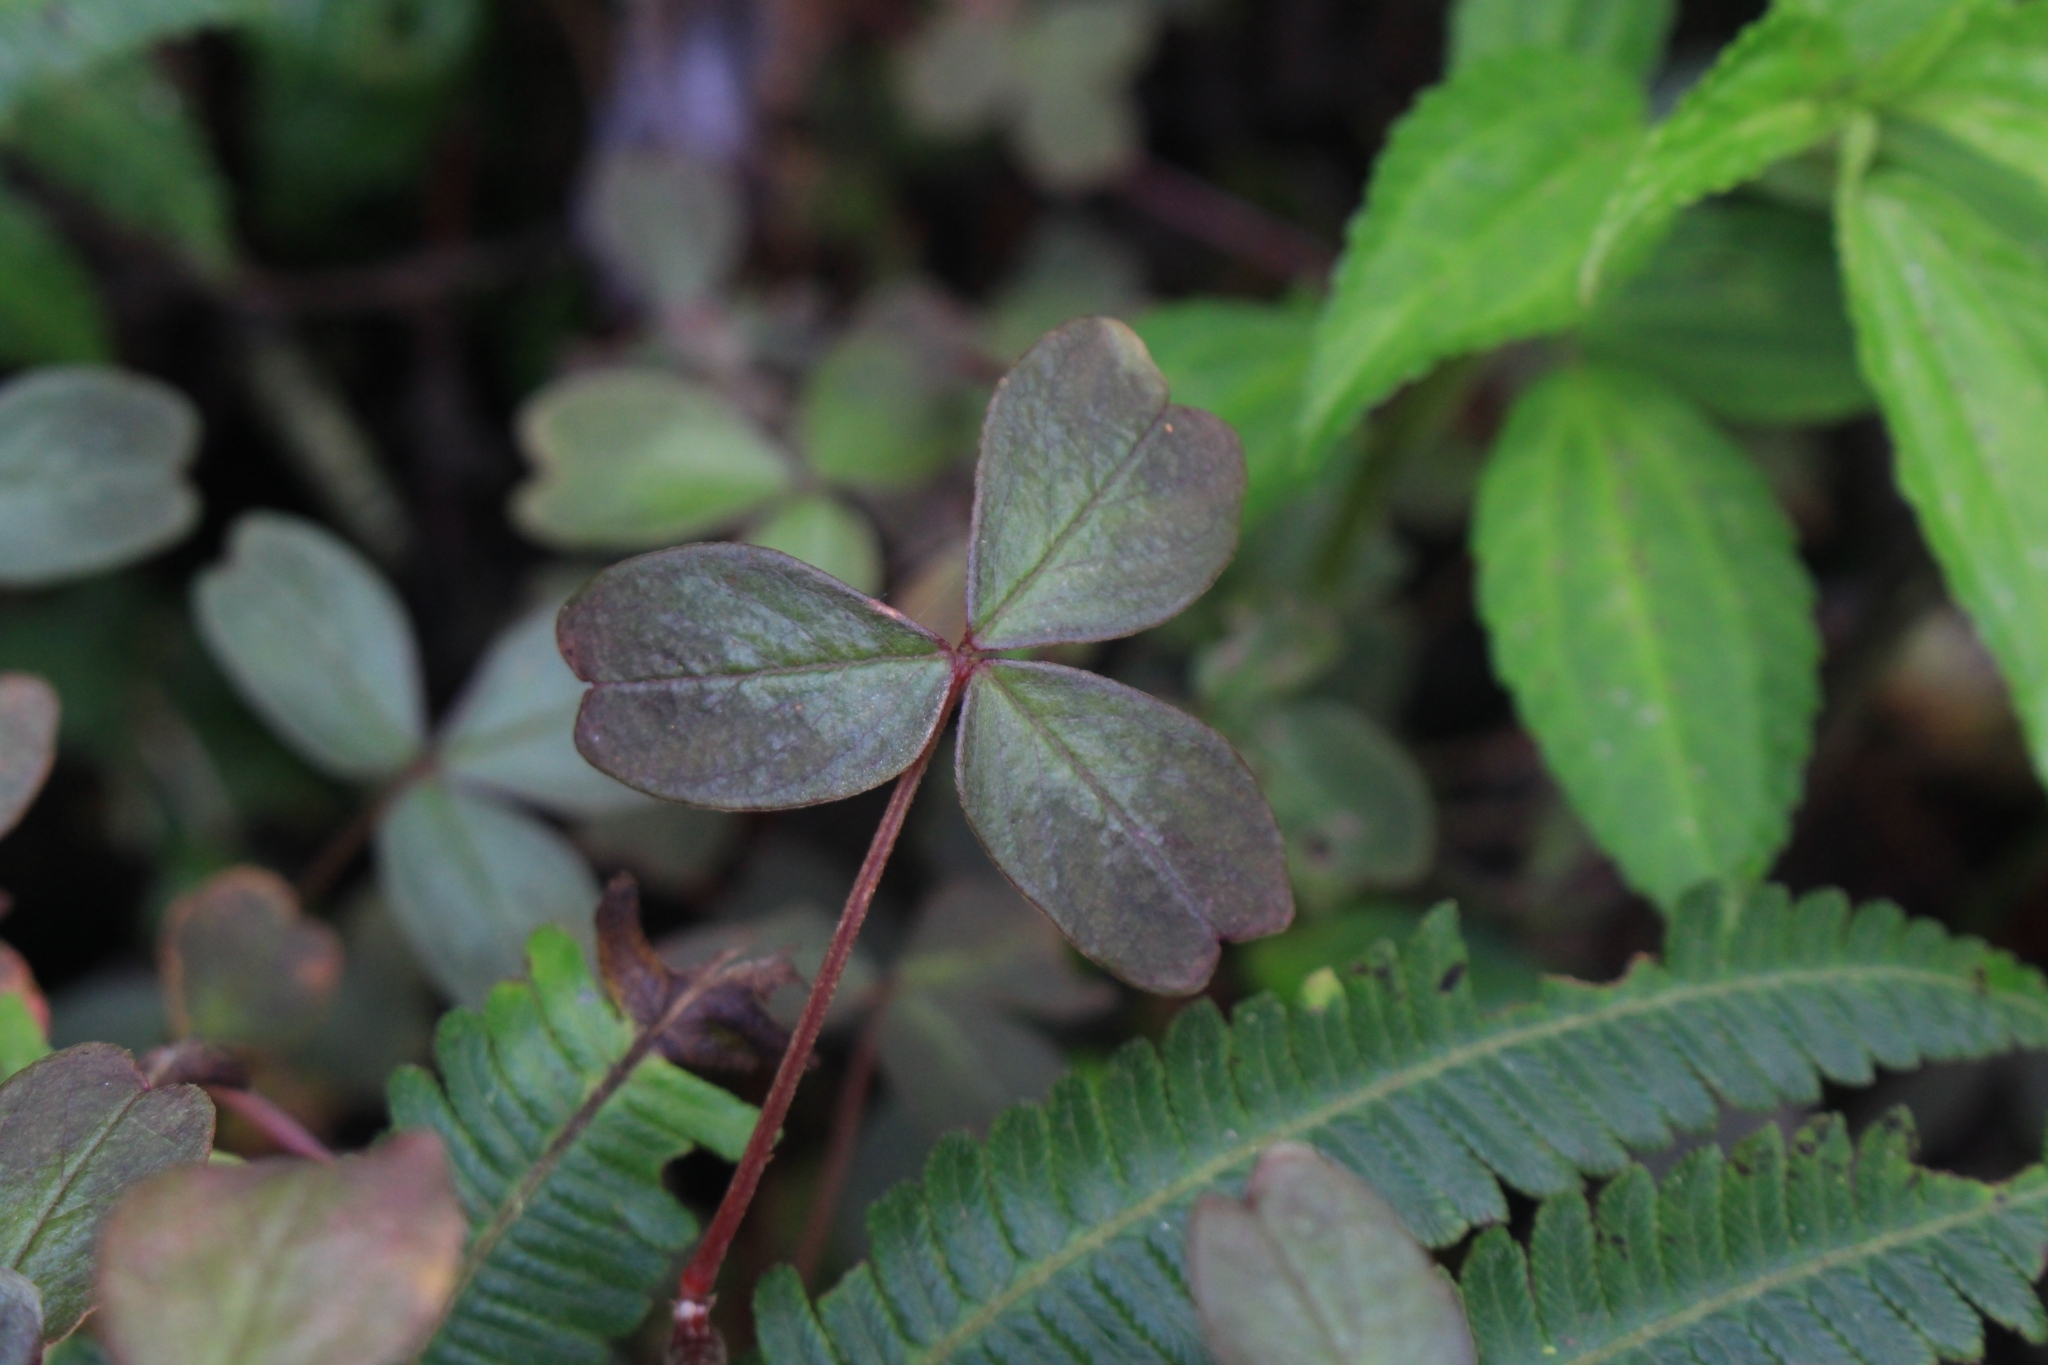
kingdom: Plantae
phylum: Tracheophyta
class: Magnoliopsida
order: Oxalidales
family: Oxalidaceae
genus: Oxalis
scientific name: Oxalis spiralis
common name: Spiral sorrel
